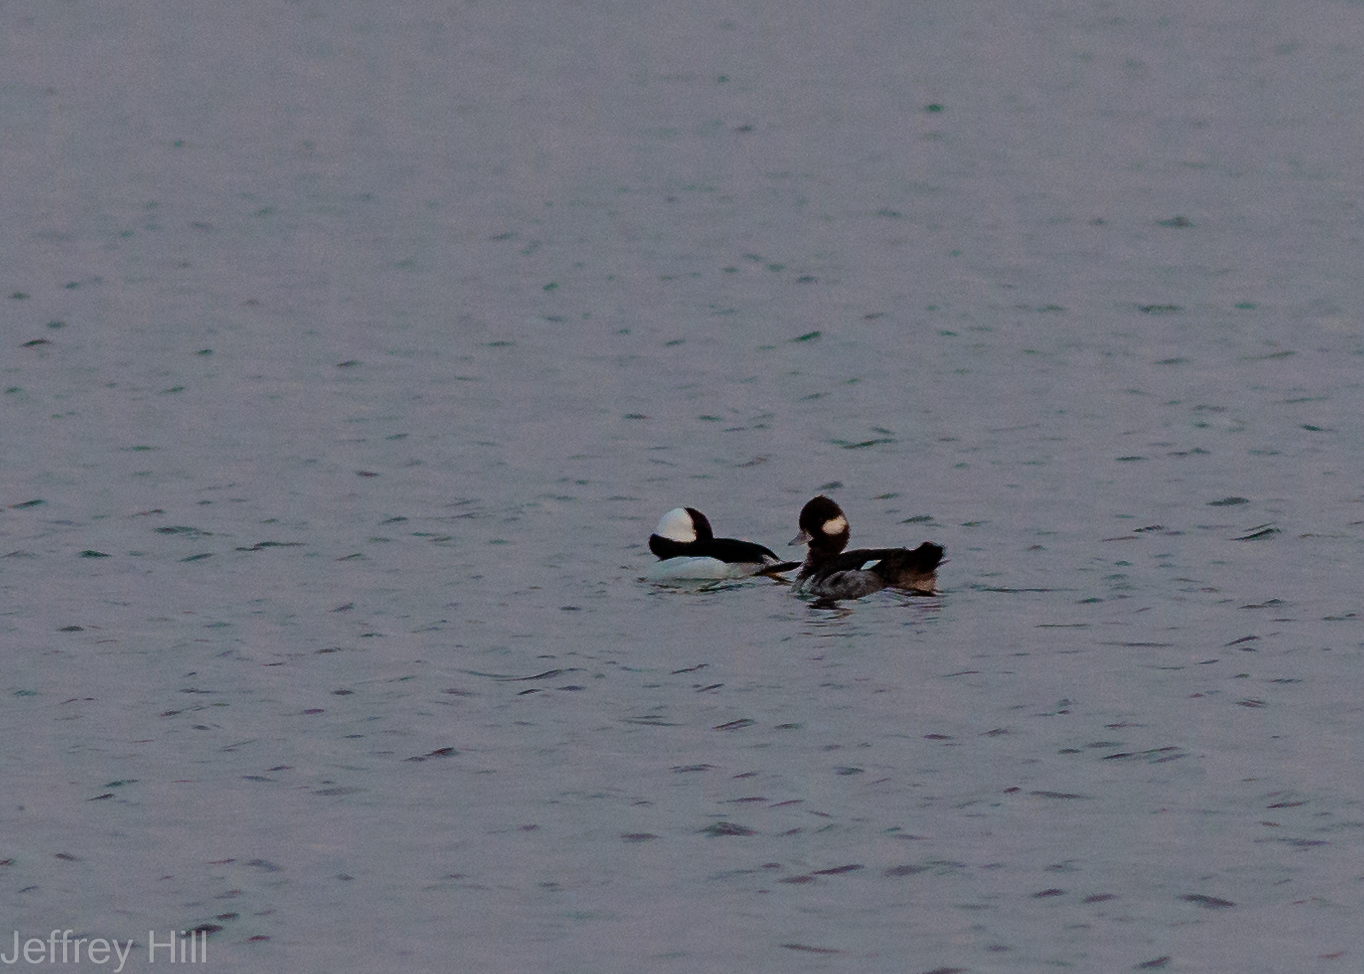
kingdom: Animalia
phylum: Chordata
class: Aves
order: Anseriformes
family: Anatidae
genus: Bucephala
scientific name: Bucephala albeola
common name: Bufflehead
